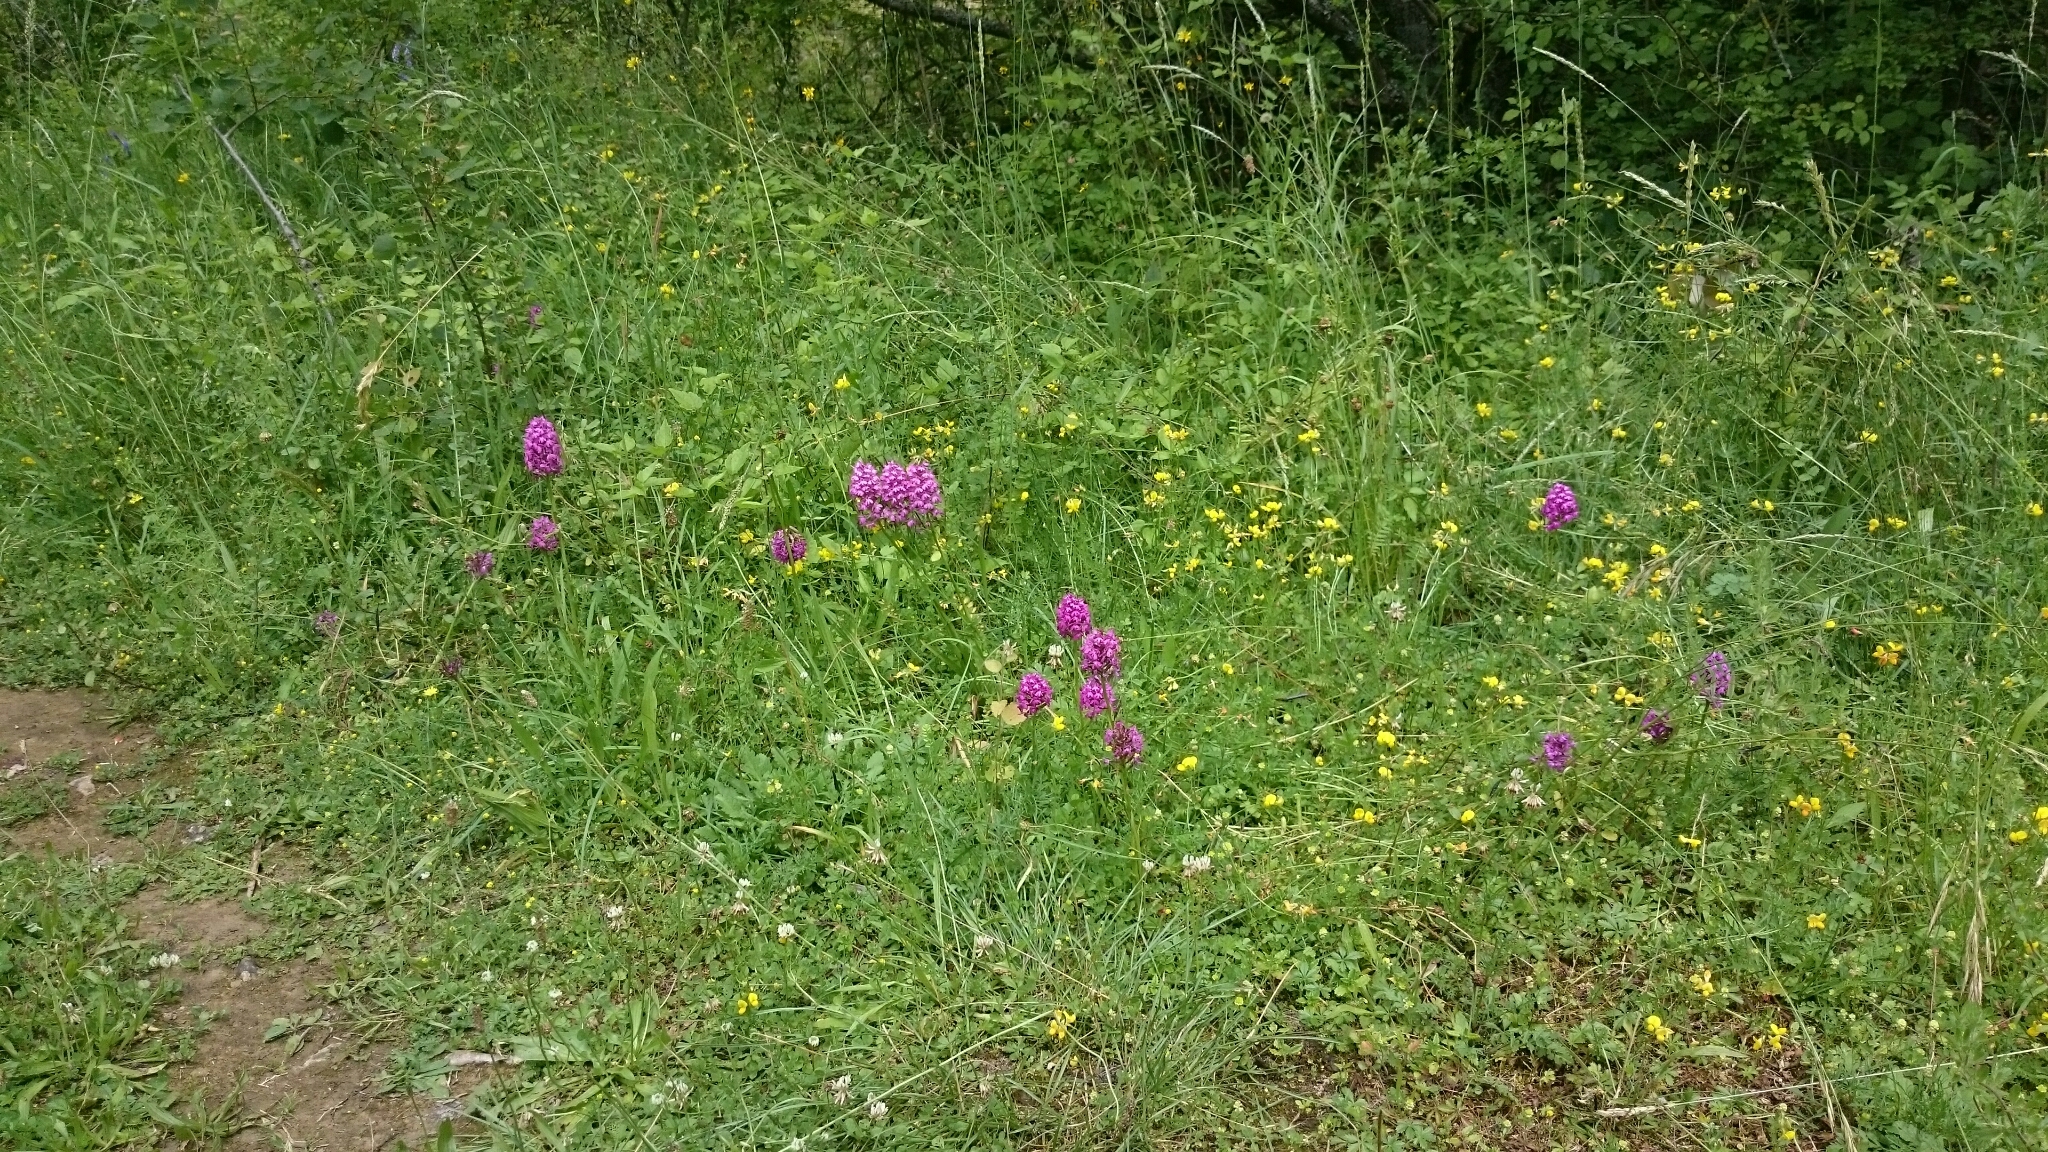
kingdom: Plantae
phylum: Tracheophyta
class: Liliopsida
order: Asparagales
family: Orchidaceae
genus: Anacamptis
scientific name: Anacamptis pyramidalis
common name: Pyramidal orchid
